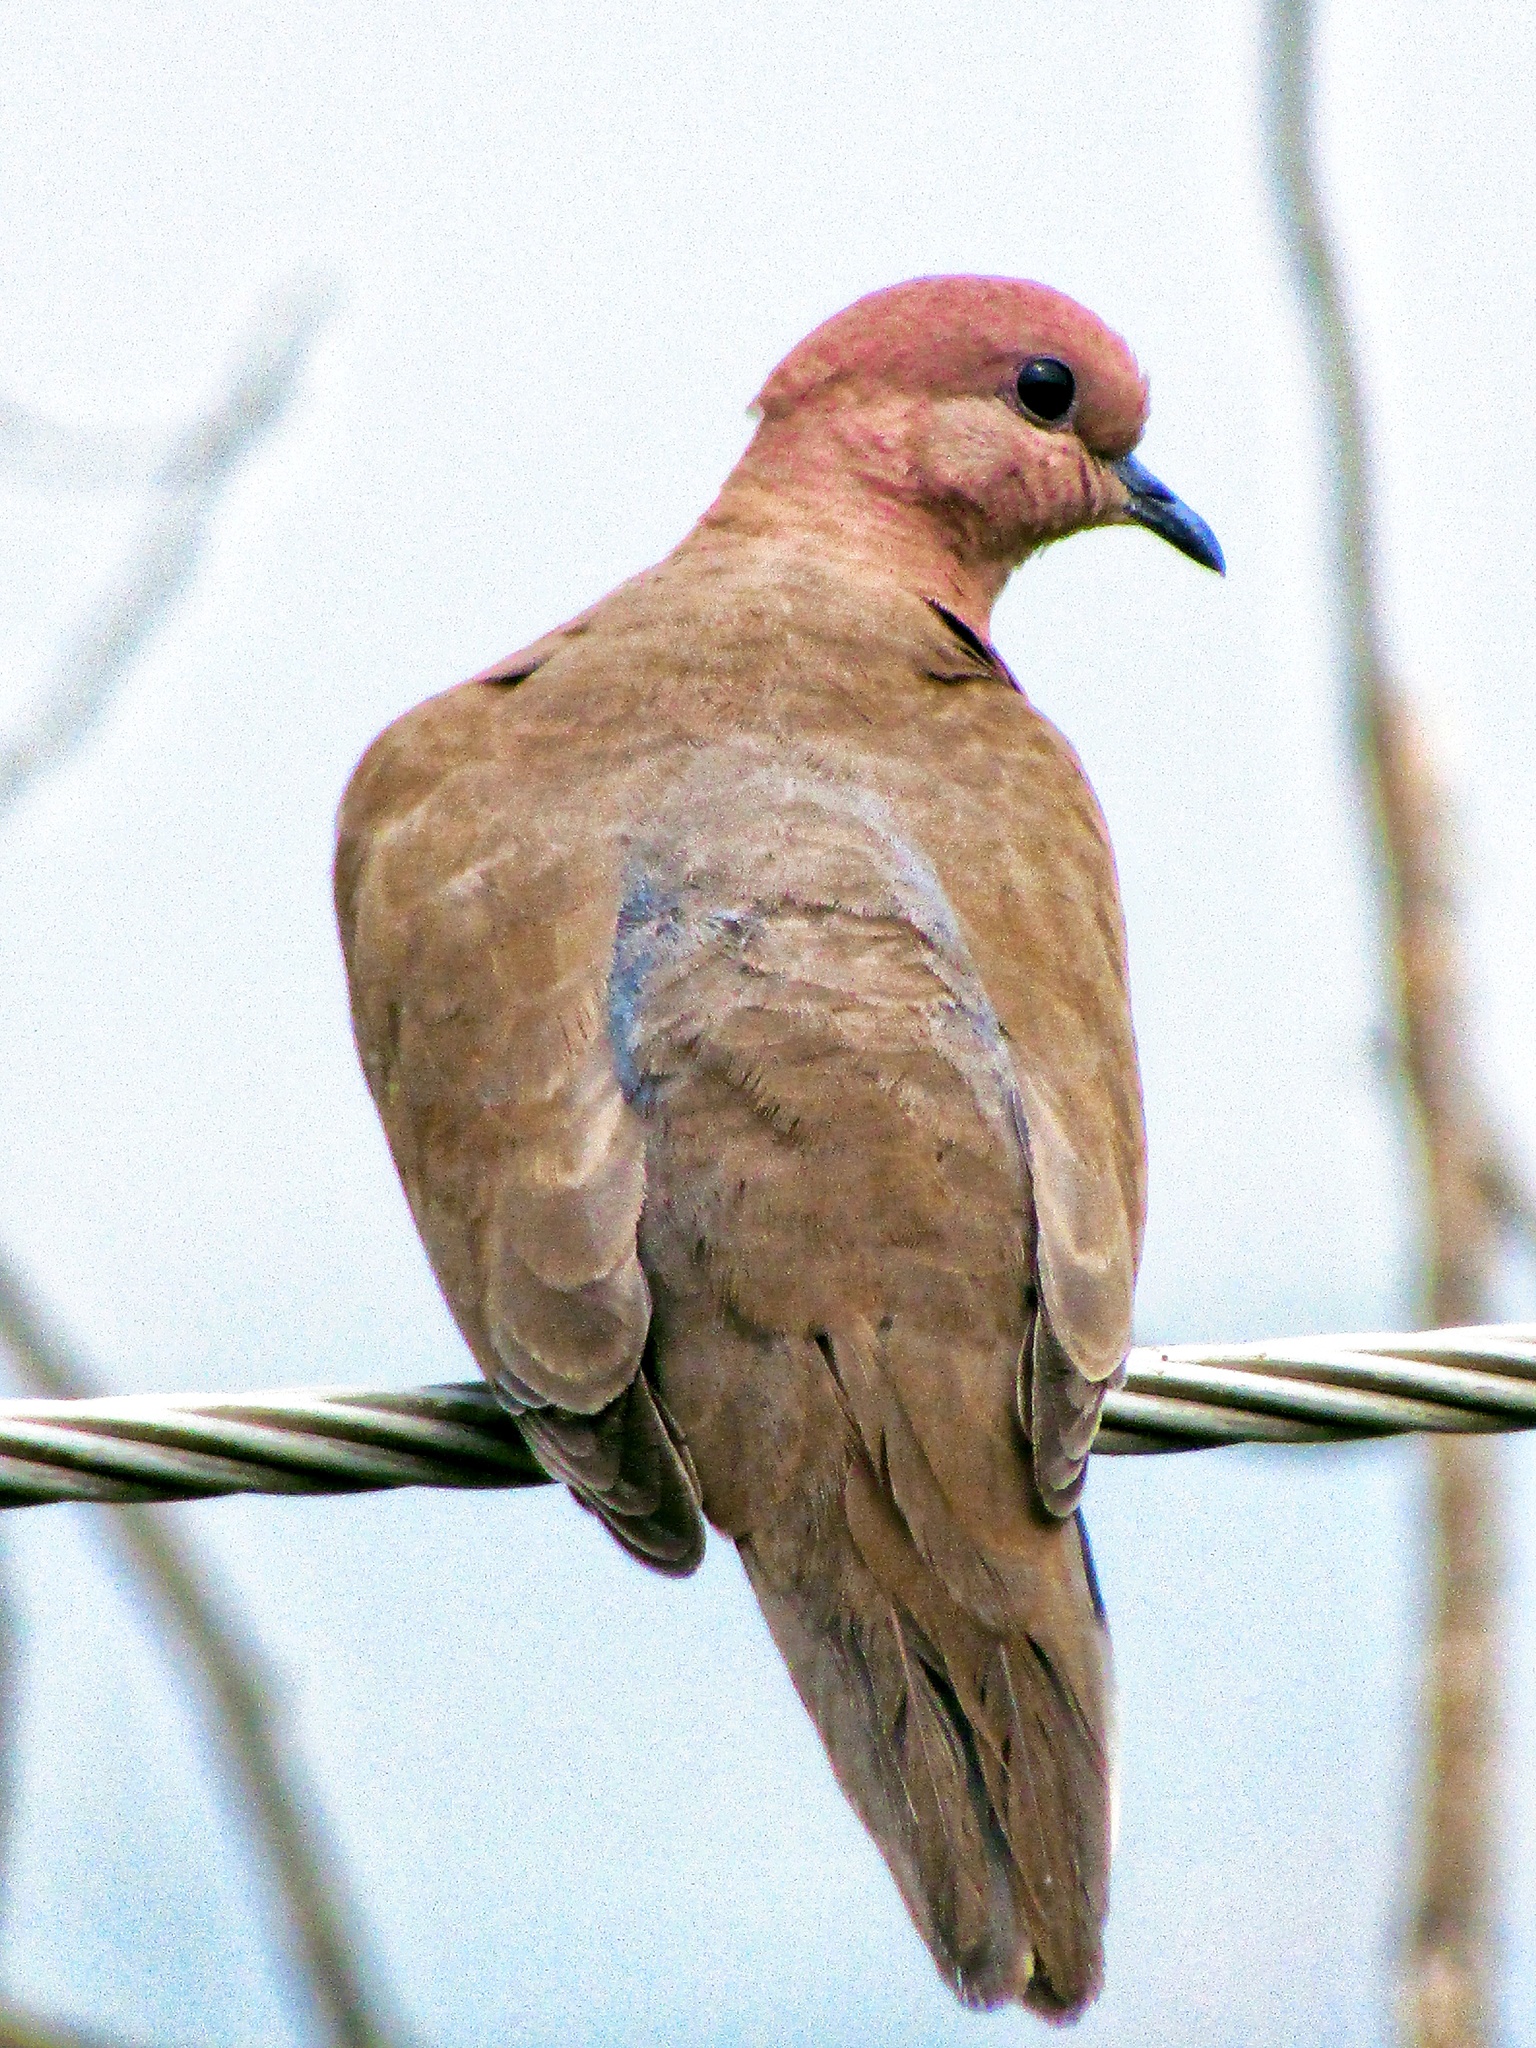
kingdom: Animalia
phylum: Chordata
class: Aves
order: Columbiformes
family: Columbidae
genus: Spilopelia
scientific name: Spilopelia senegalensis
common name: Laughing dove
